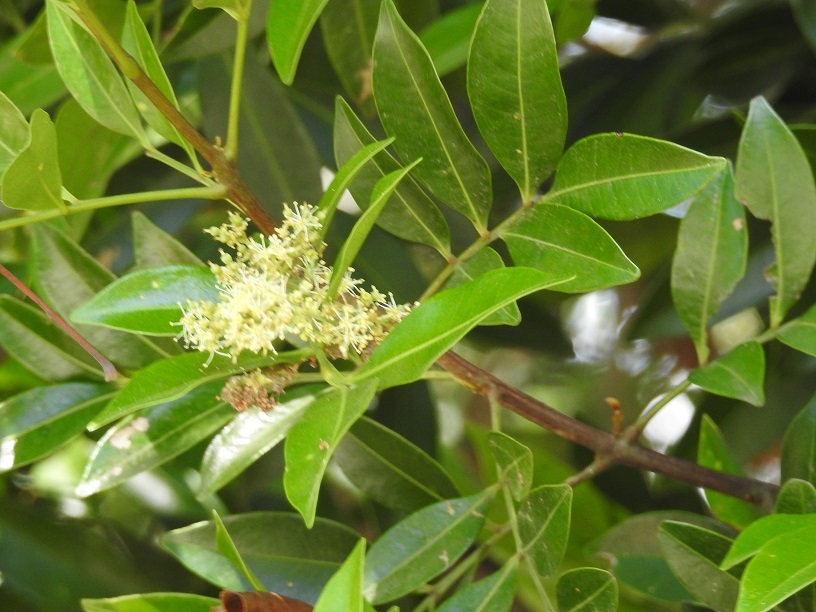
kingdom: Plantae
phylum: Tracheophyta
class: Magnoliopsida
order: Sapindales
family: Sapindaceae
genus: Matayba
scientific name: Matayba oppositifolia
